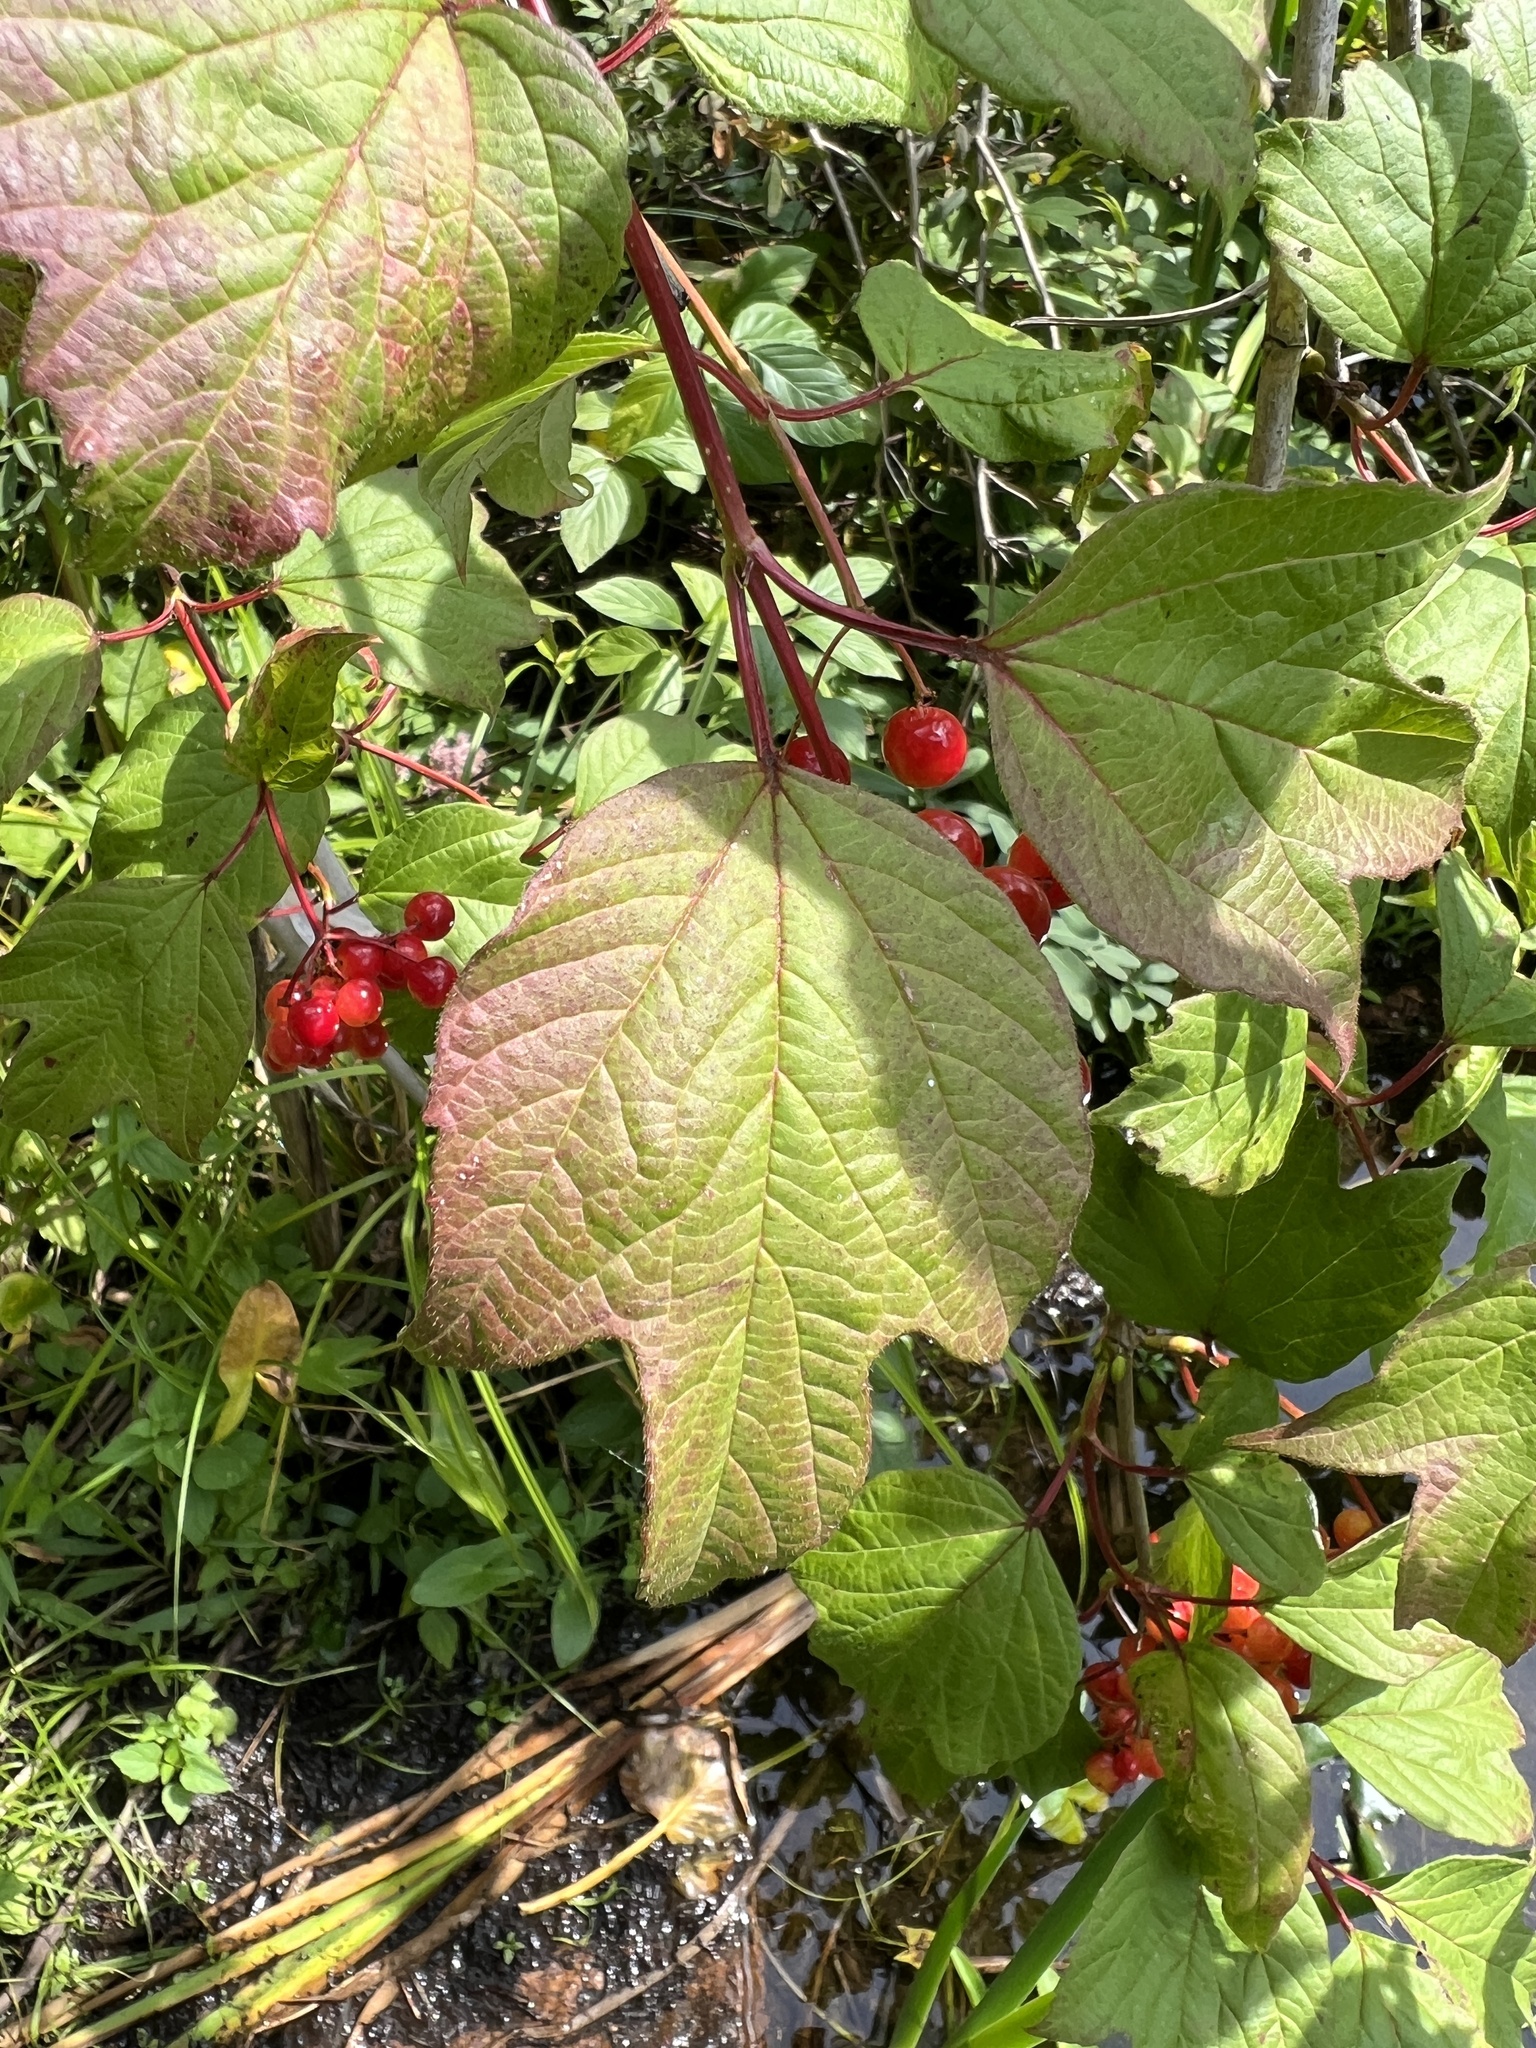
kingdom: Plantae
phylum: Tracheophyta
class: Magnoliopsida
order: Dipsacales
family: Viburnaceae
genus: Viburnum
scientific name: Viburnum opulus
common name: Guelder-rose
